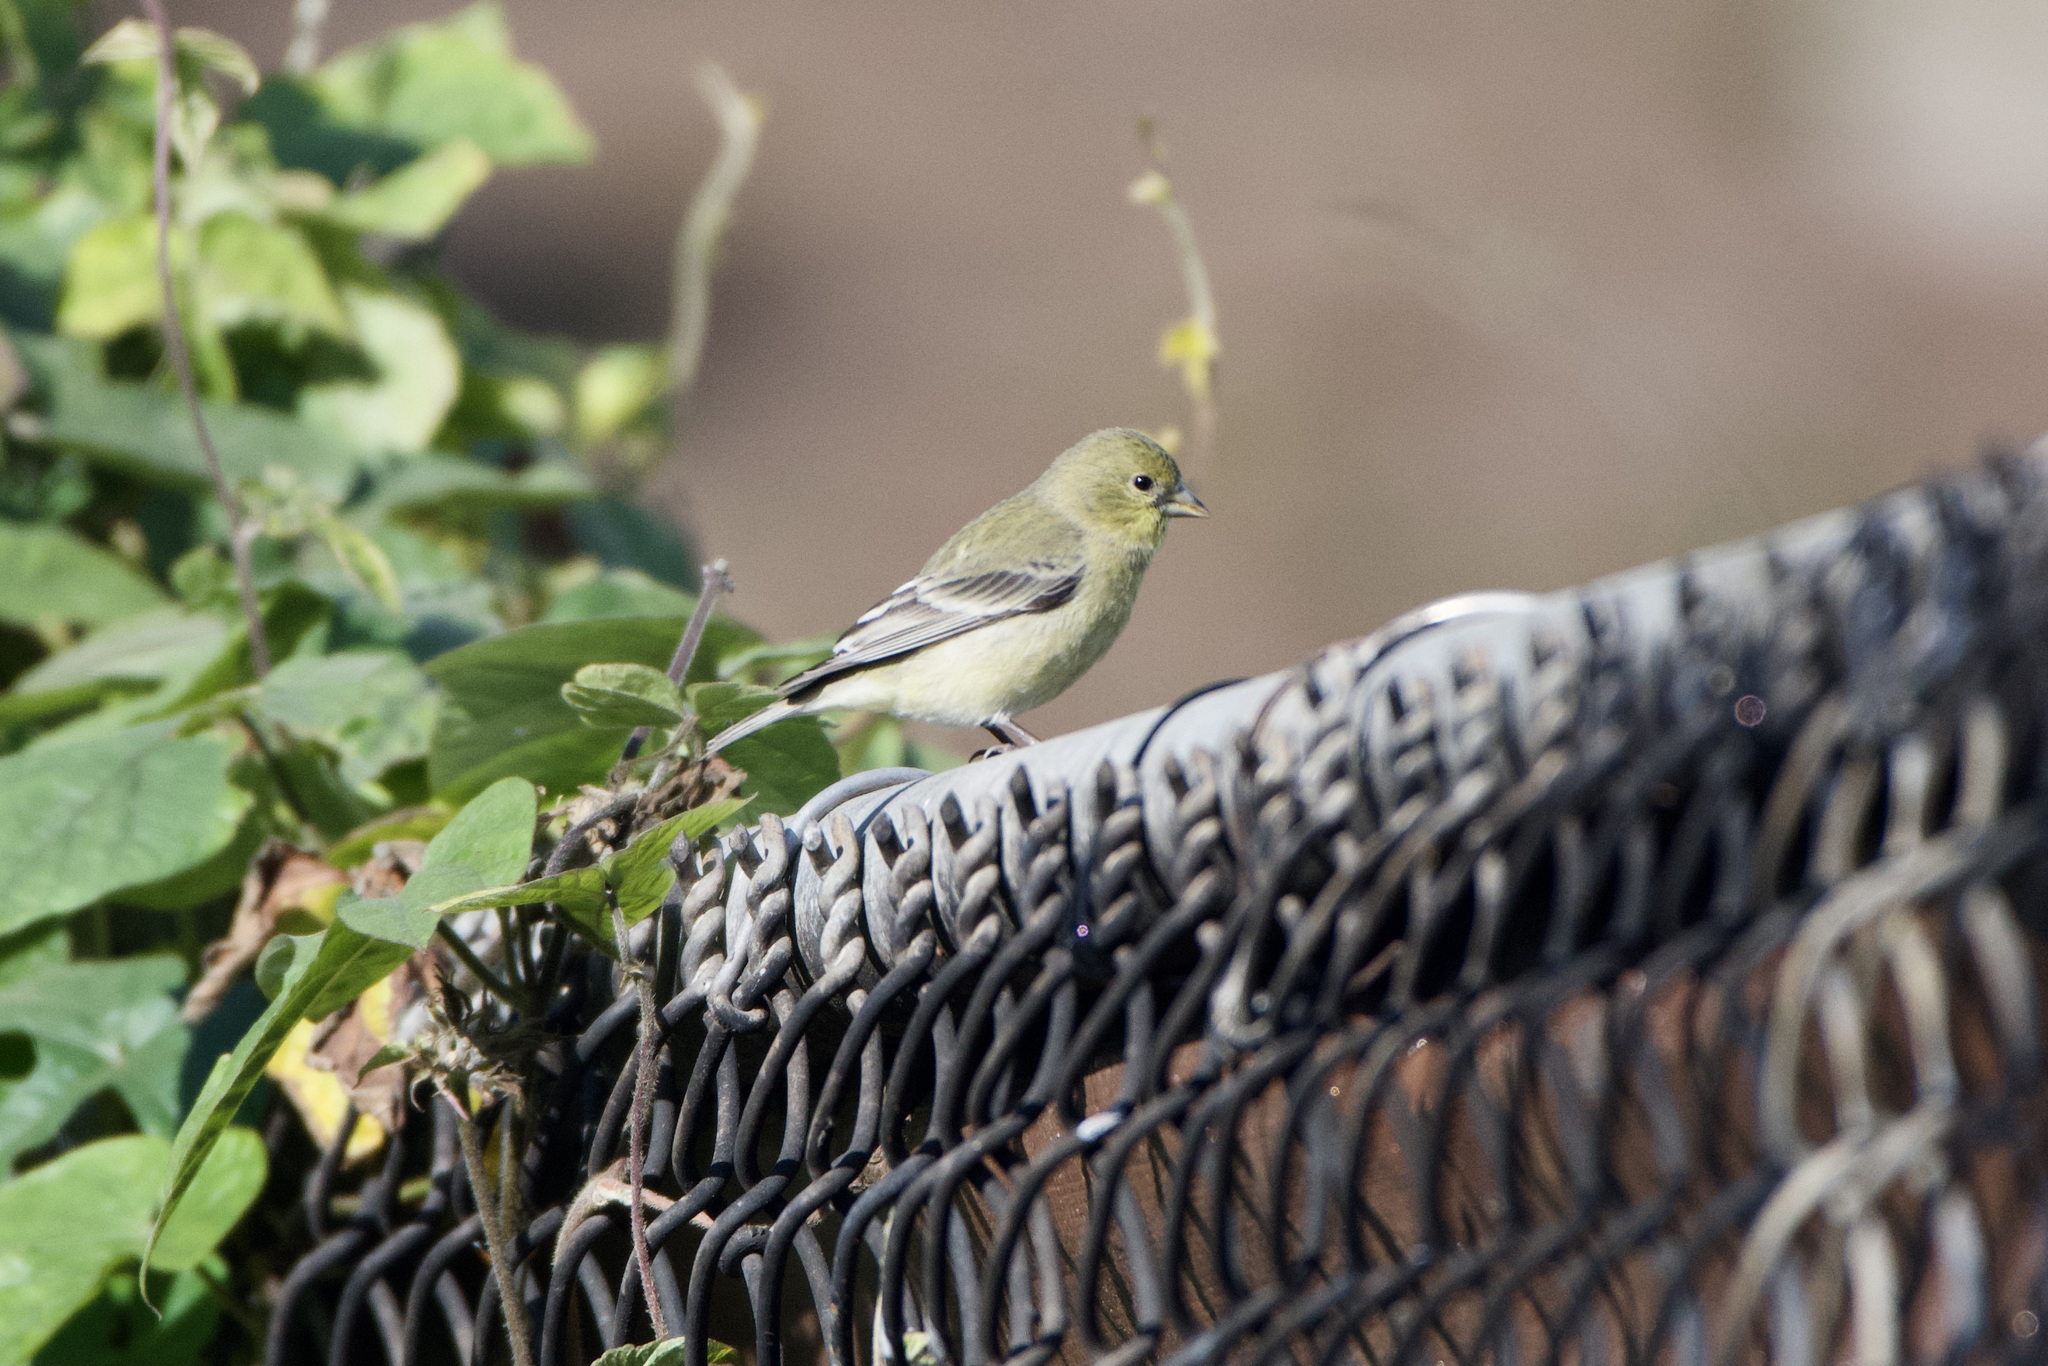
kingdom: Animalia
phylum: Chordata
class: Aves
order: Passeriformes
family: Fringillidae
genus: Spinus
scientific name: Spinus psaltria
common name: Lesser goldfinch
